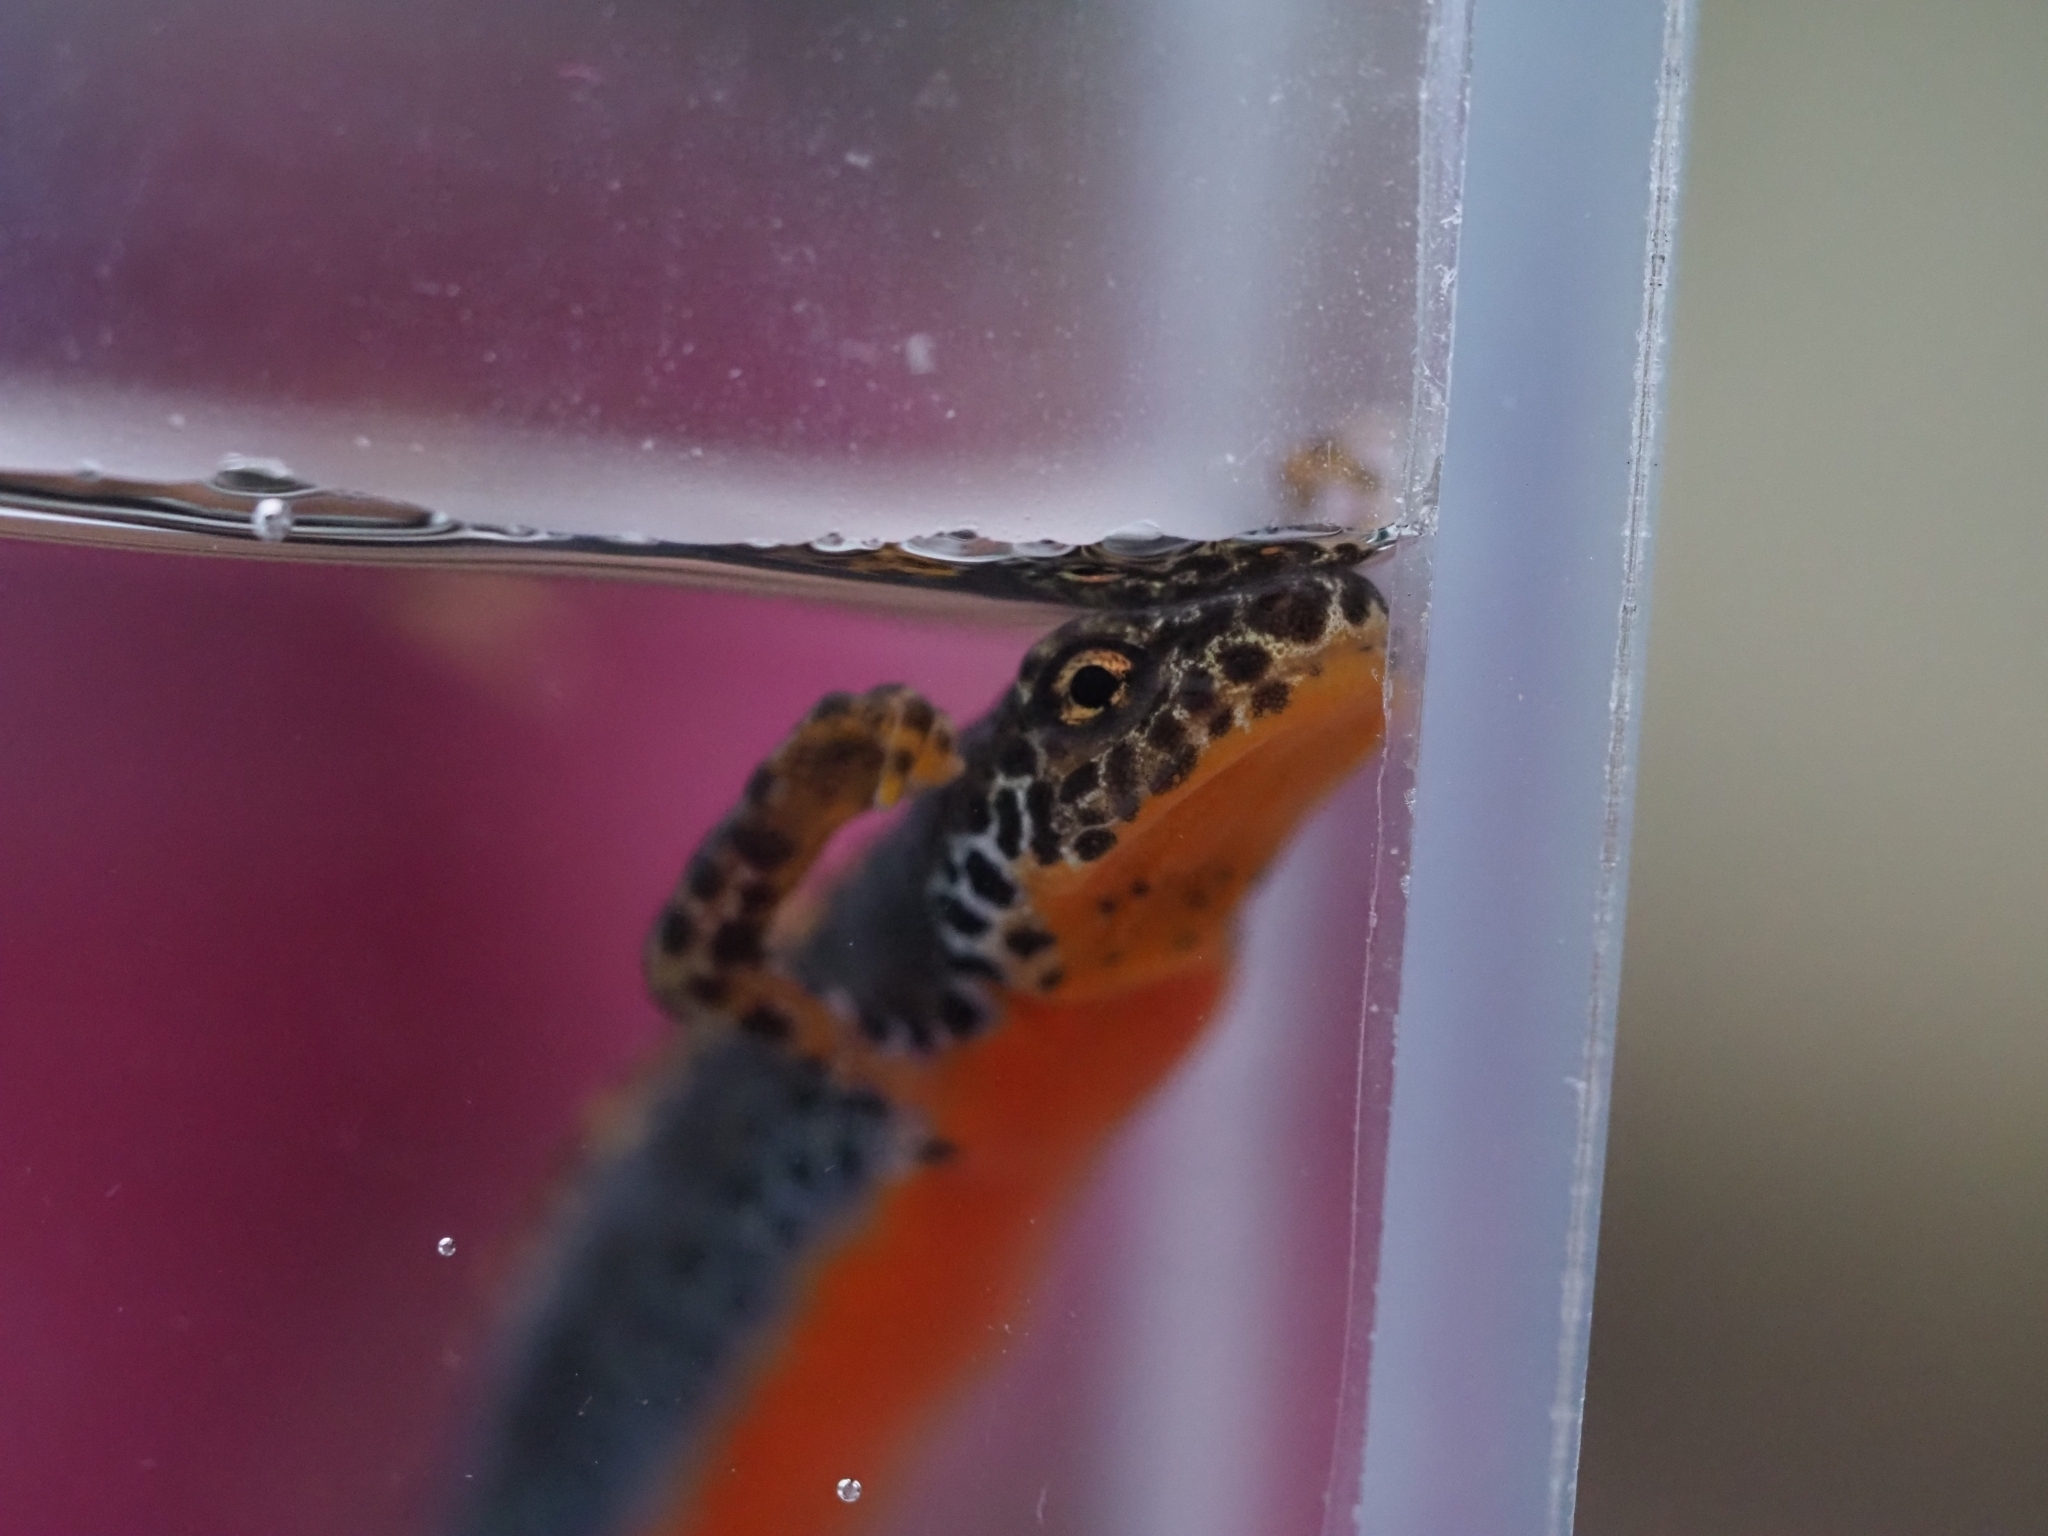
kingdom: Animalia
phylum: Chordata
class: Amphibia
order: Caudata
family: Salamandridae
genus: Ichthyosaura
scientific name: Ichthyosaura alpestris
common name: Alpine newt
